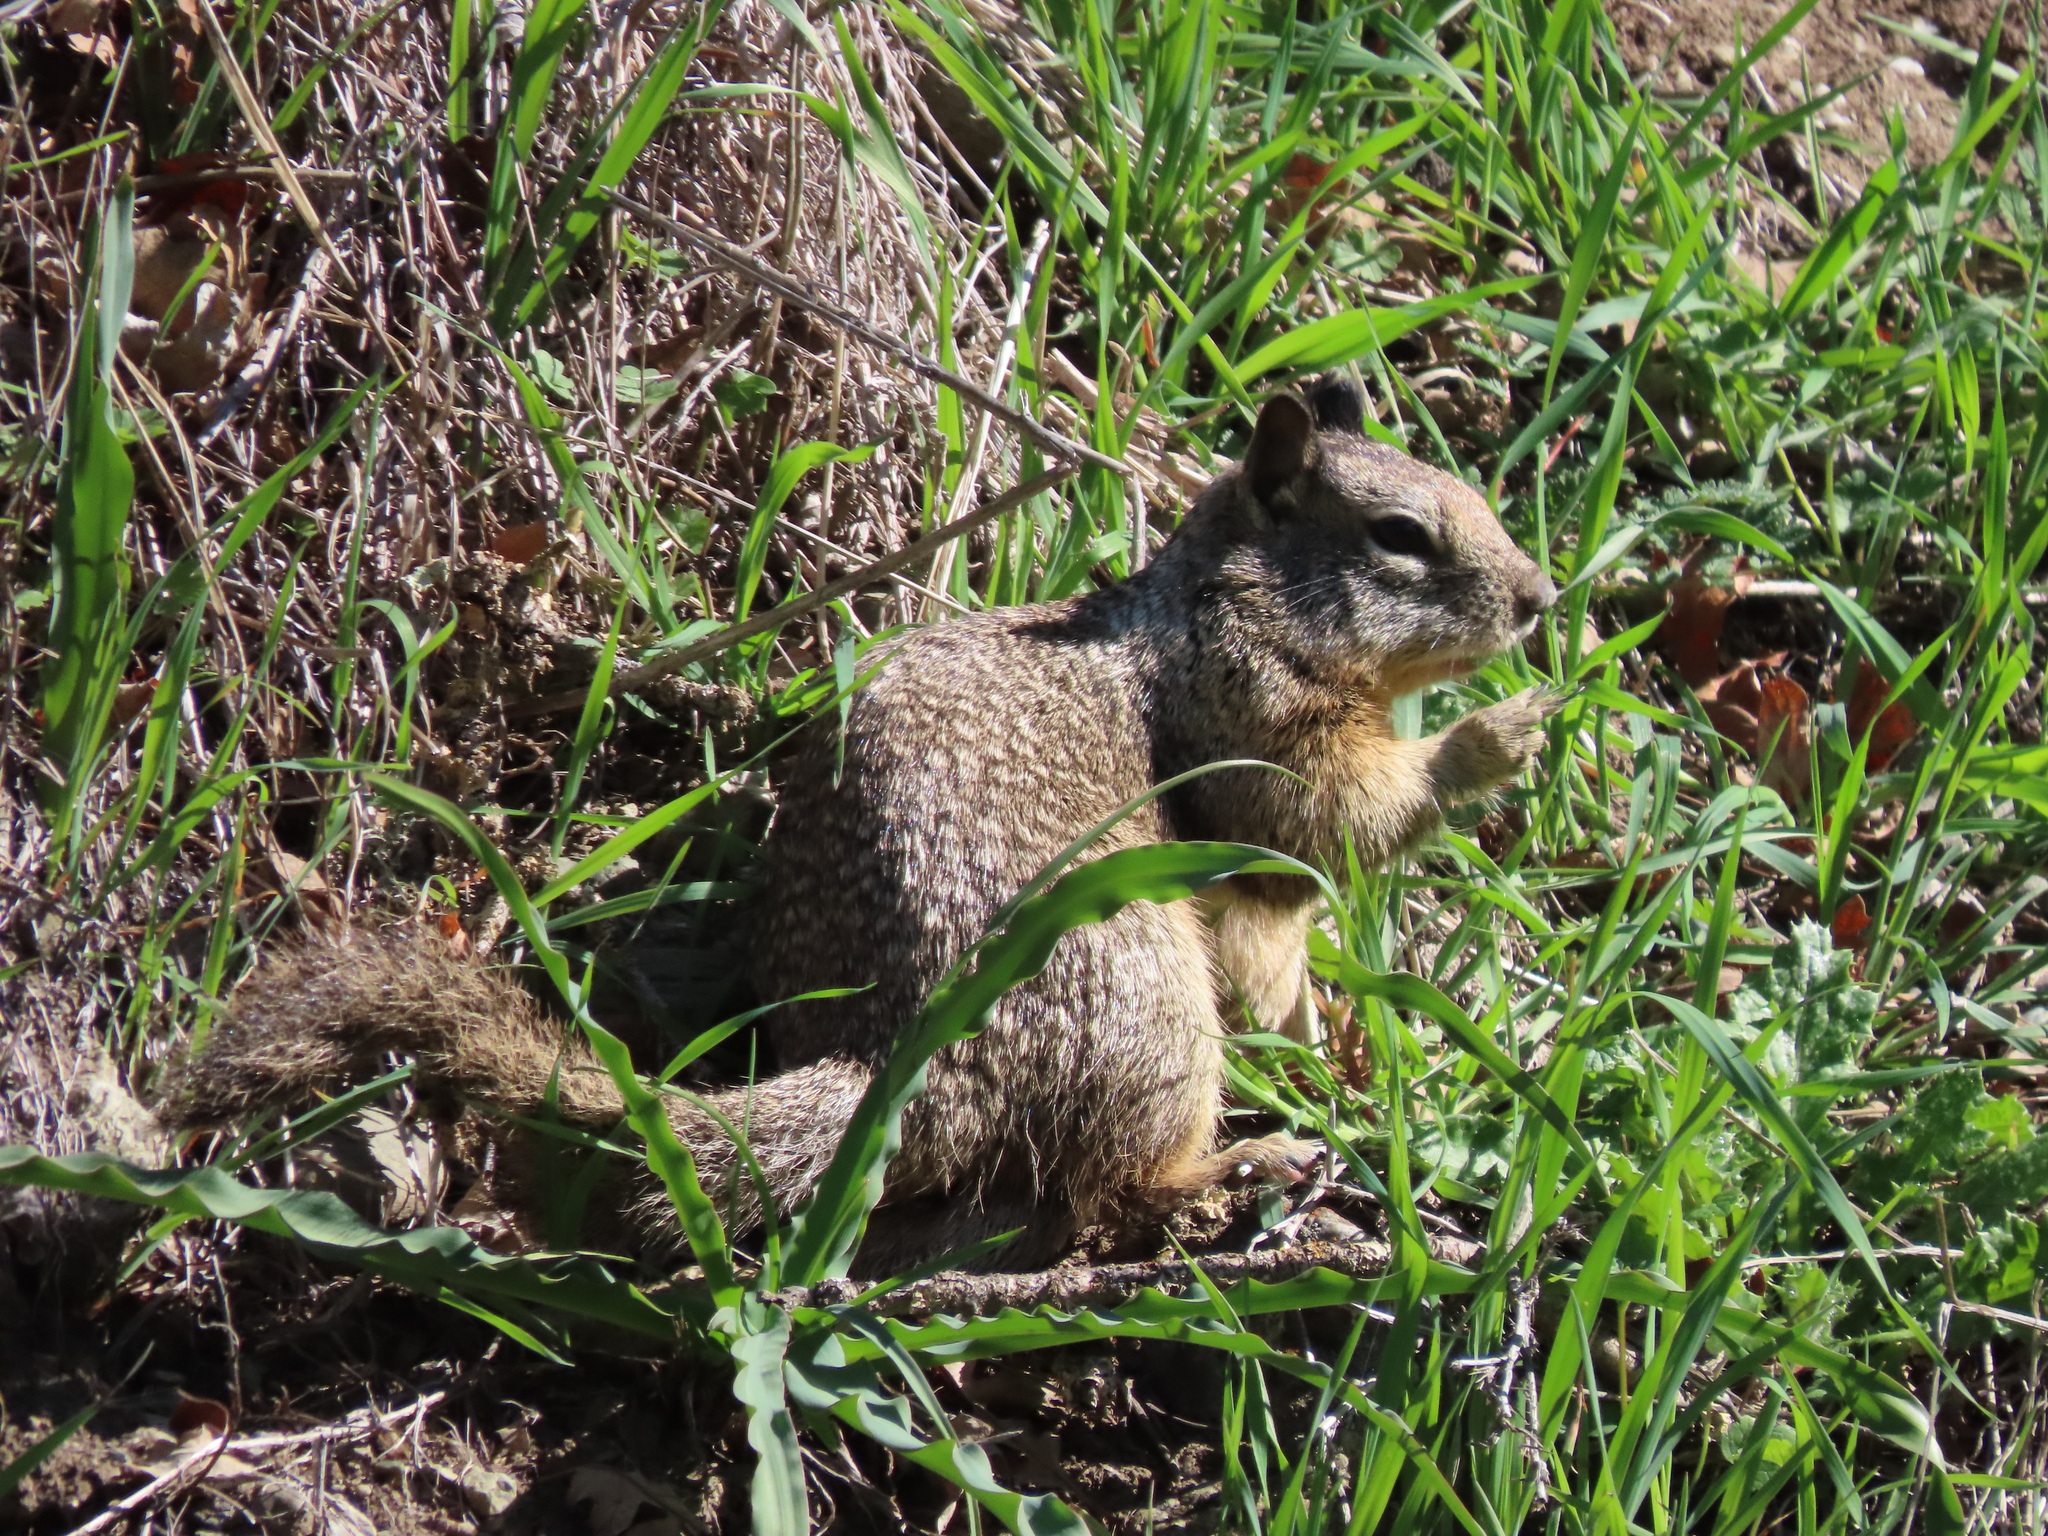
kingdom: Animalia
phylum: Chordata
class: Mammalia
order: Rodentia
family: Sciuridae
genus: Otospermophilus
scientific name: Otospermophilus beecheyi
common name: California ground squirrel
